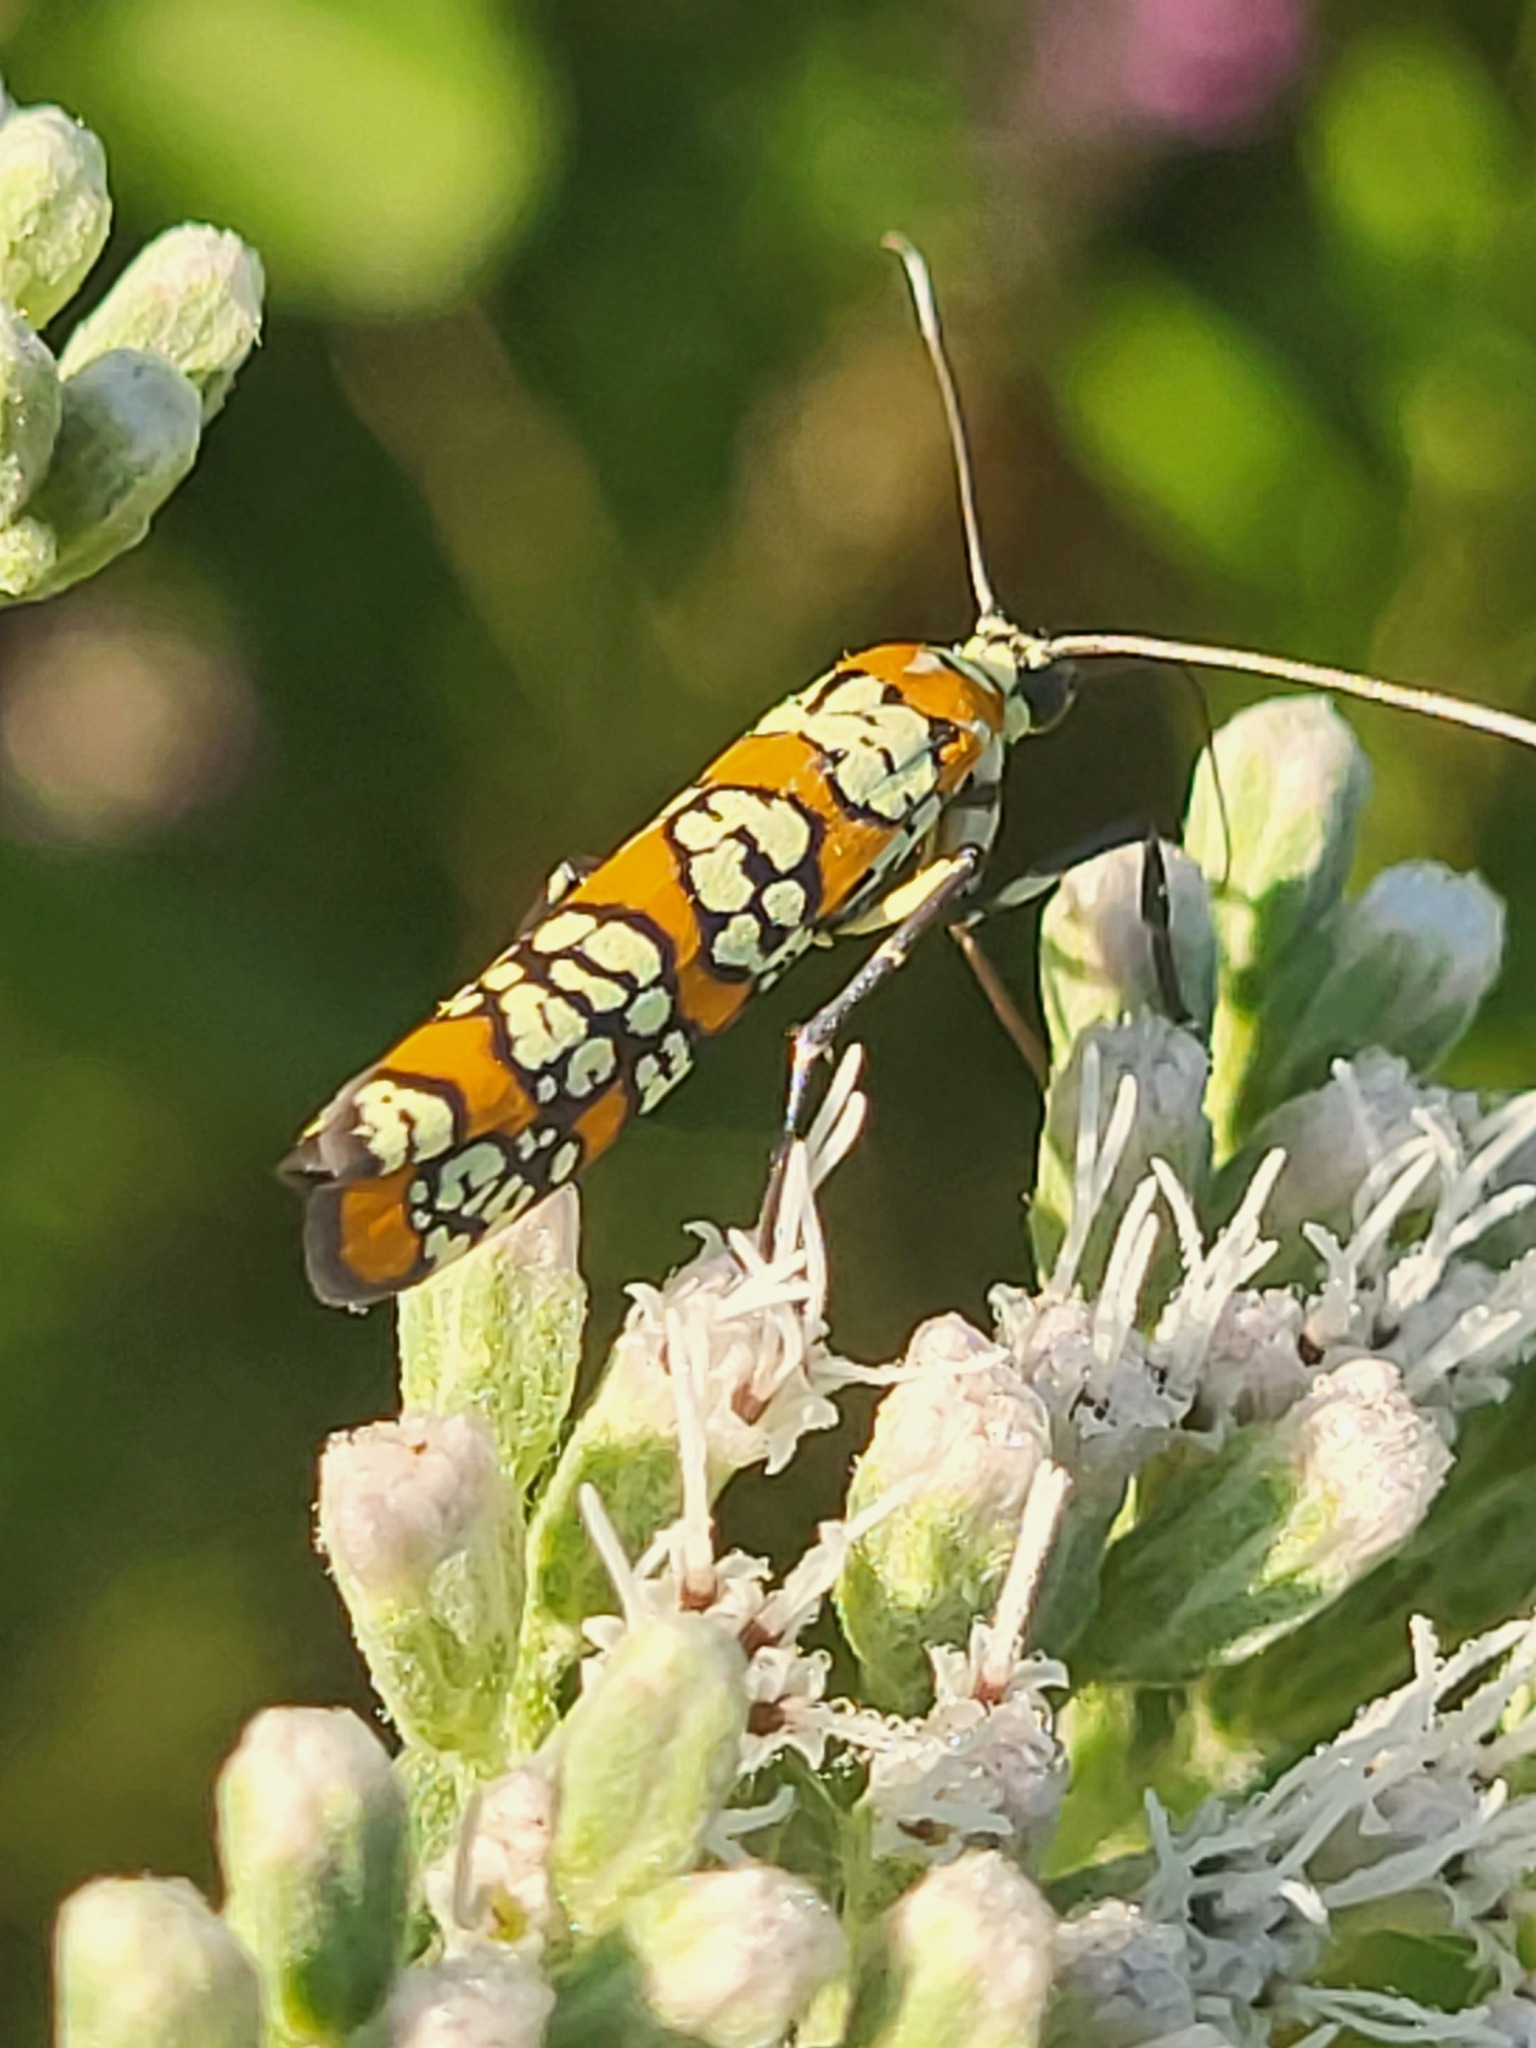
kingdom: Animalia
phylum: Arthropoda
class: Insecta
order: Lepidoptera
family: Attevidae
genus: Atteva
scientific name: Atteva punctella
